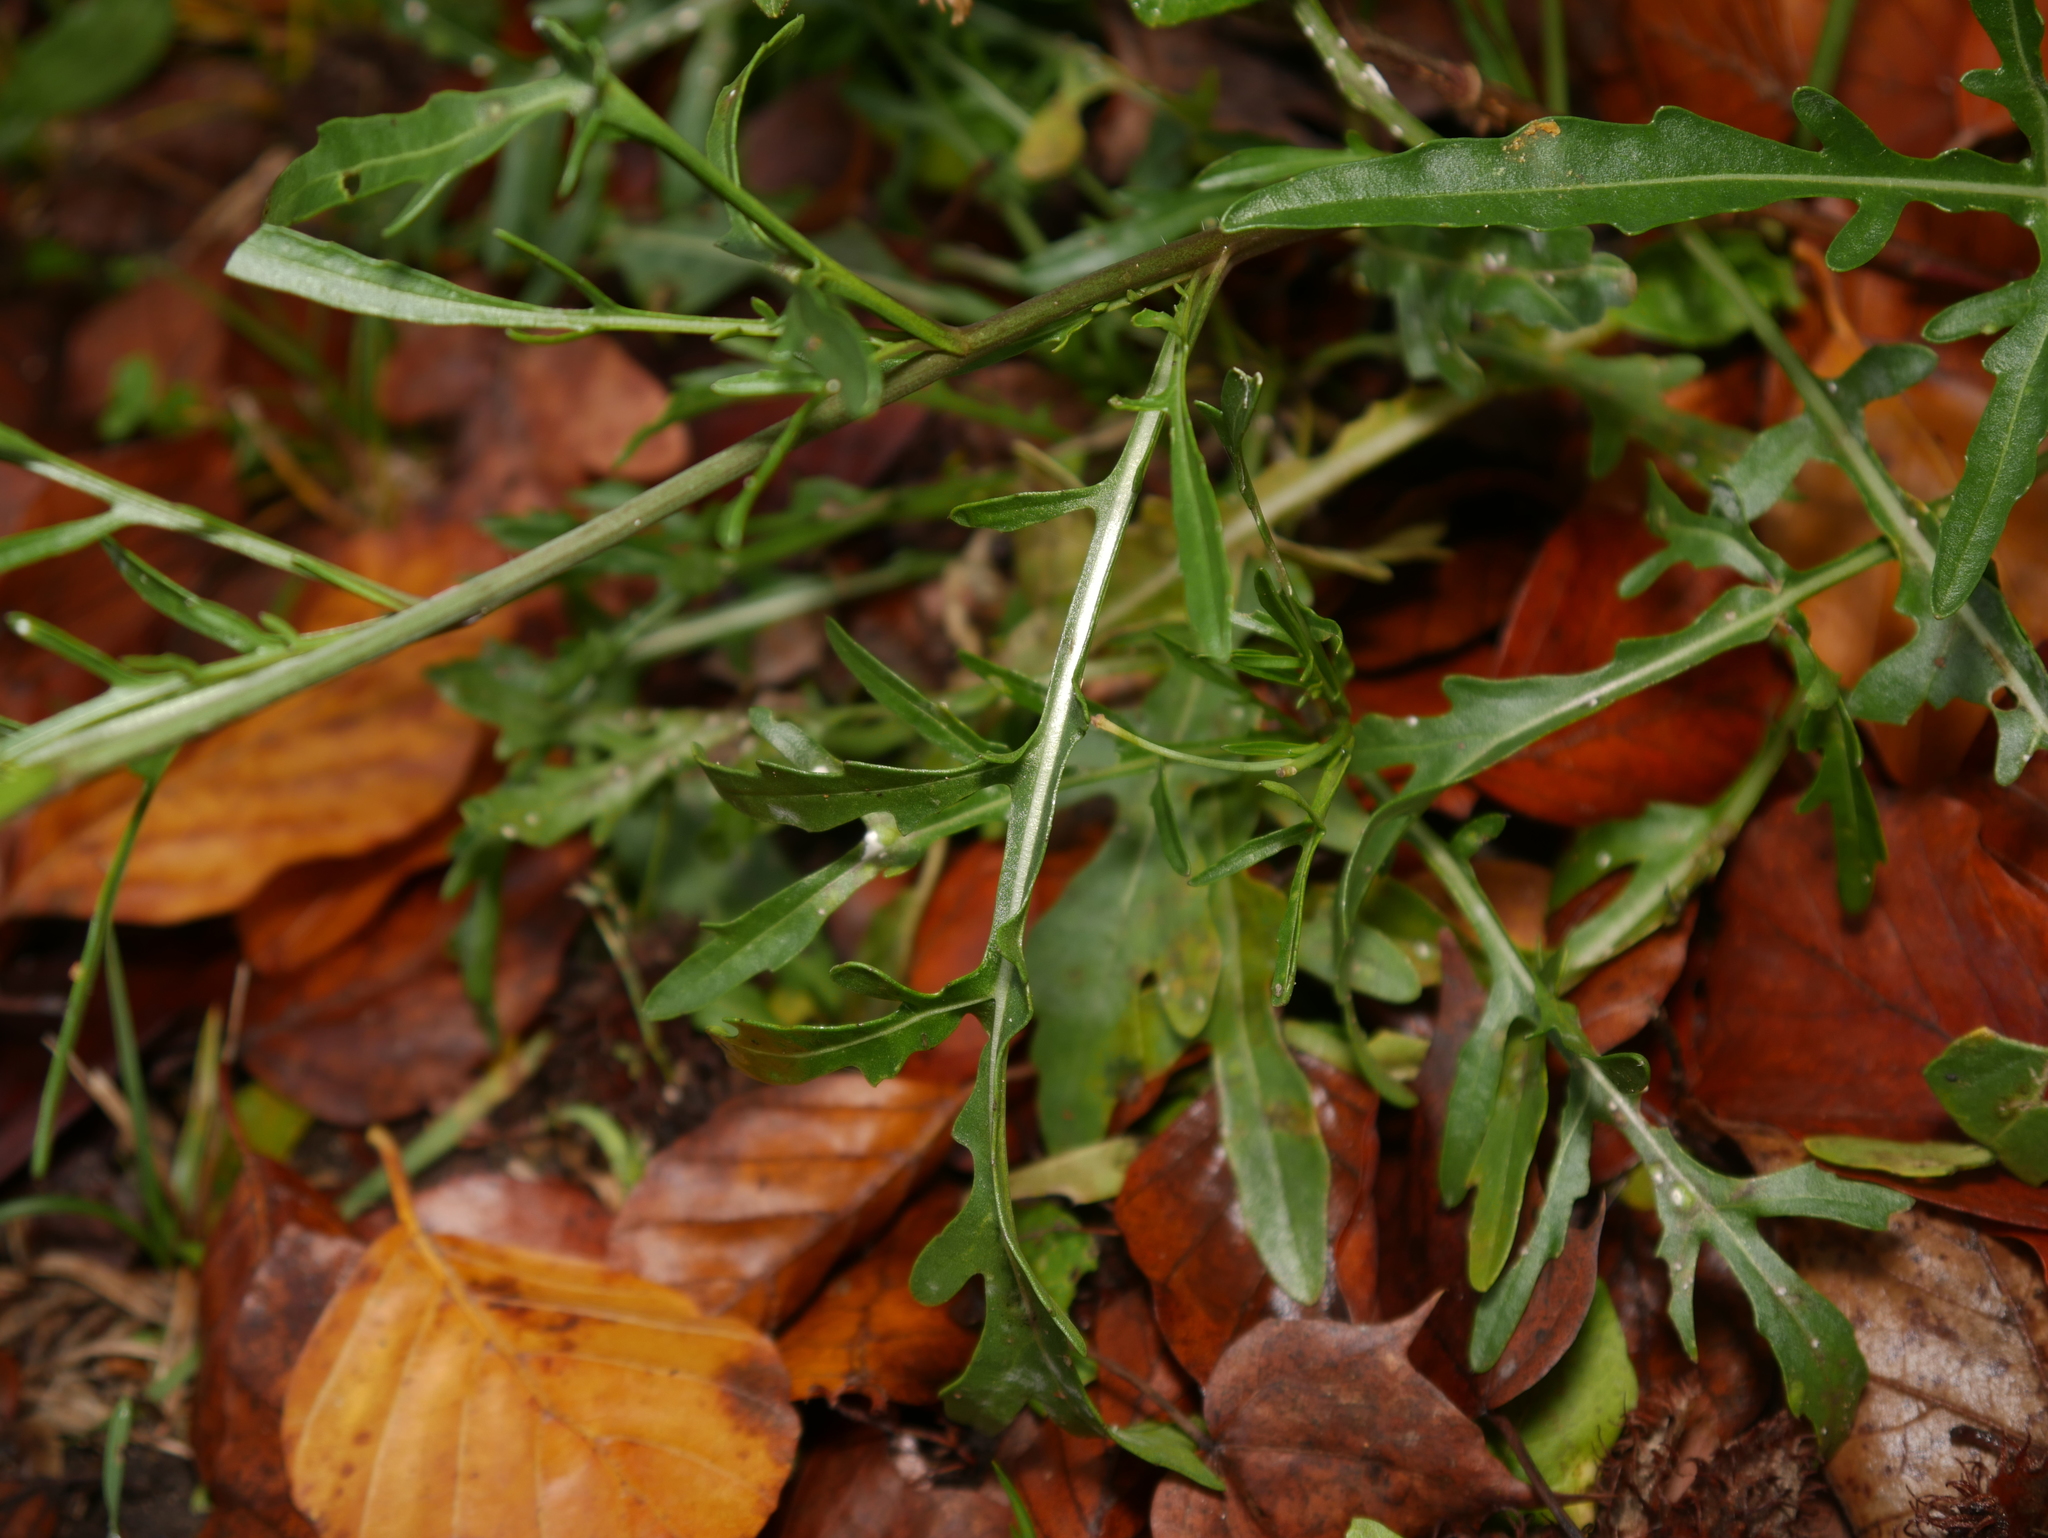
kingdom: Plantae
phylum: Tracheophyta
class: Magnoliopsida
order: Brassicales
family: Brassicaceae
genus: Diplotaxis
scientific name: Diplotaxis tenuifolia
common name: Perennial wall-rocket
